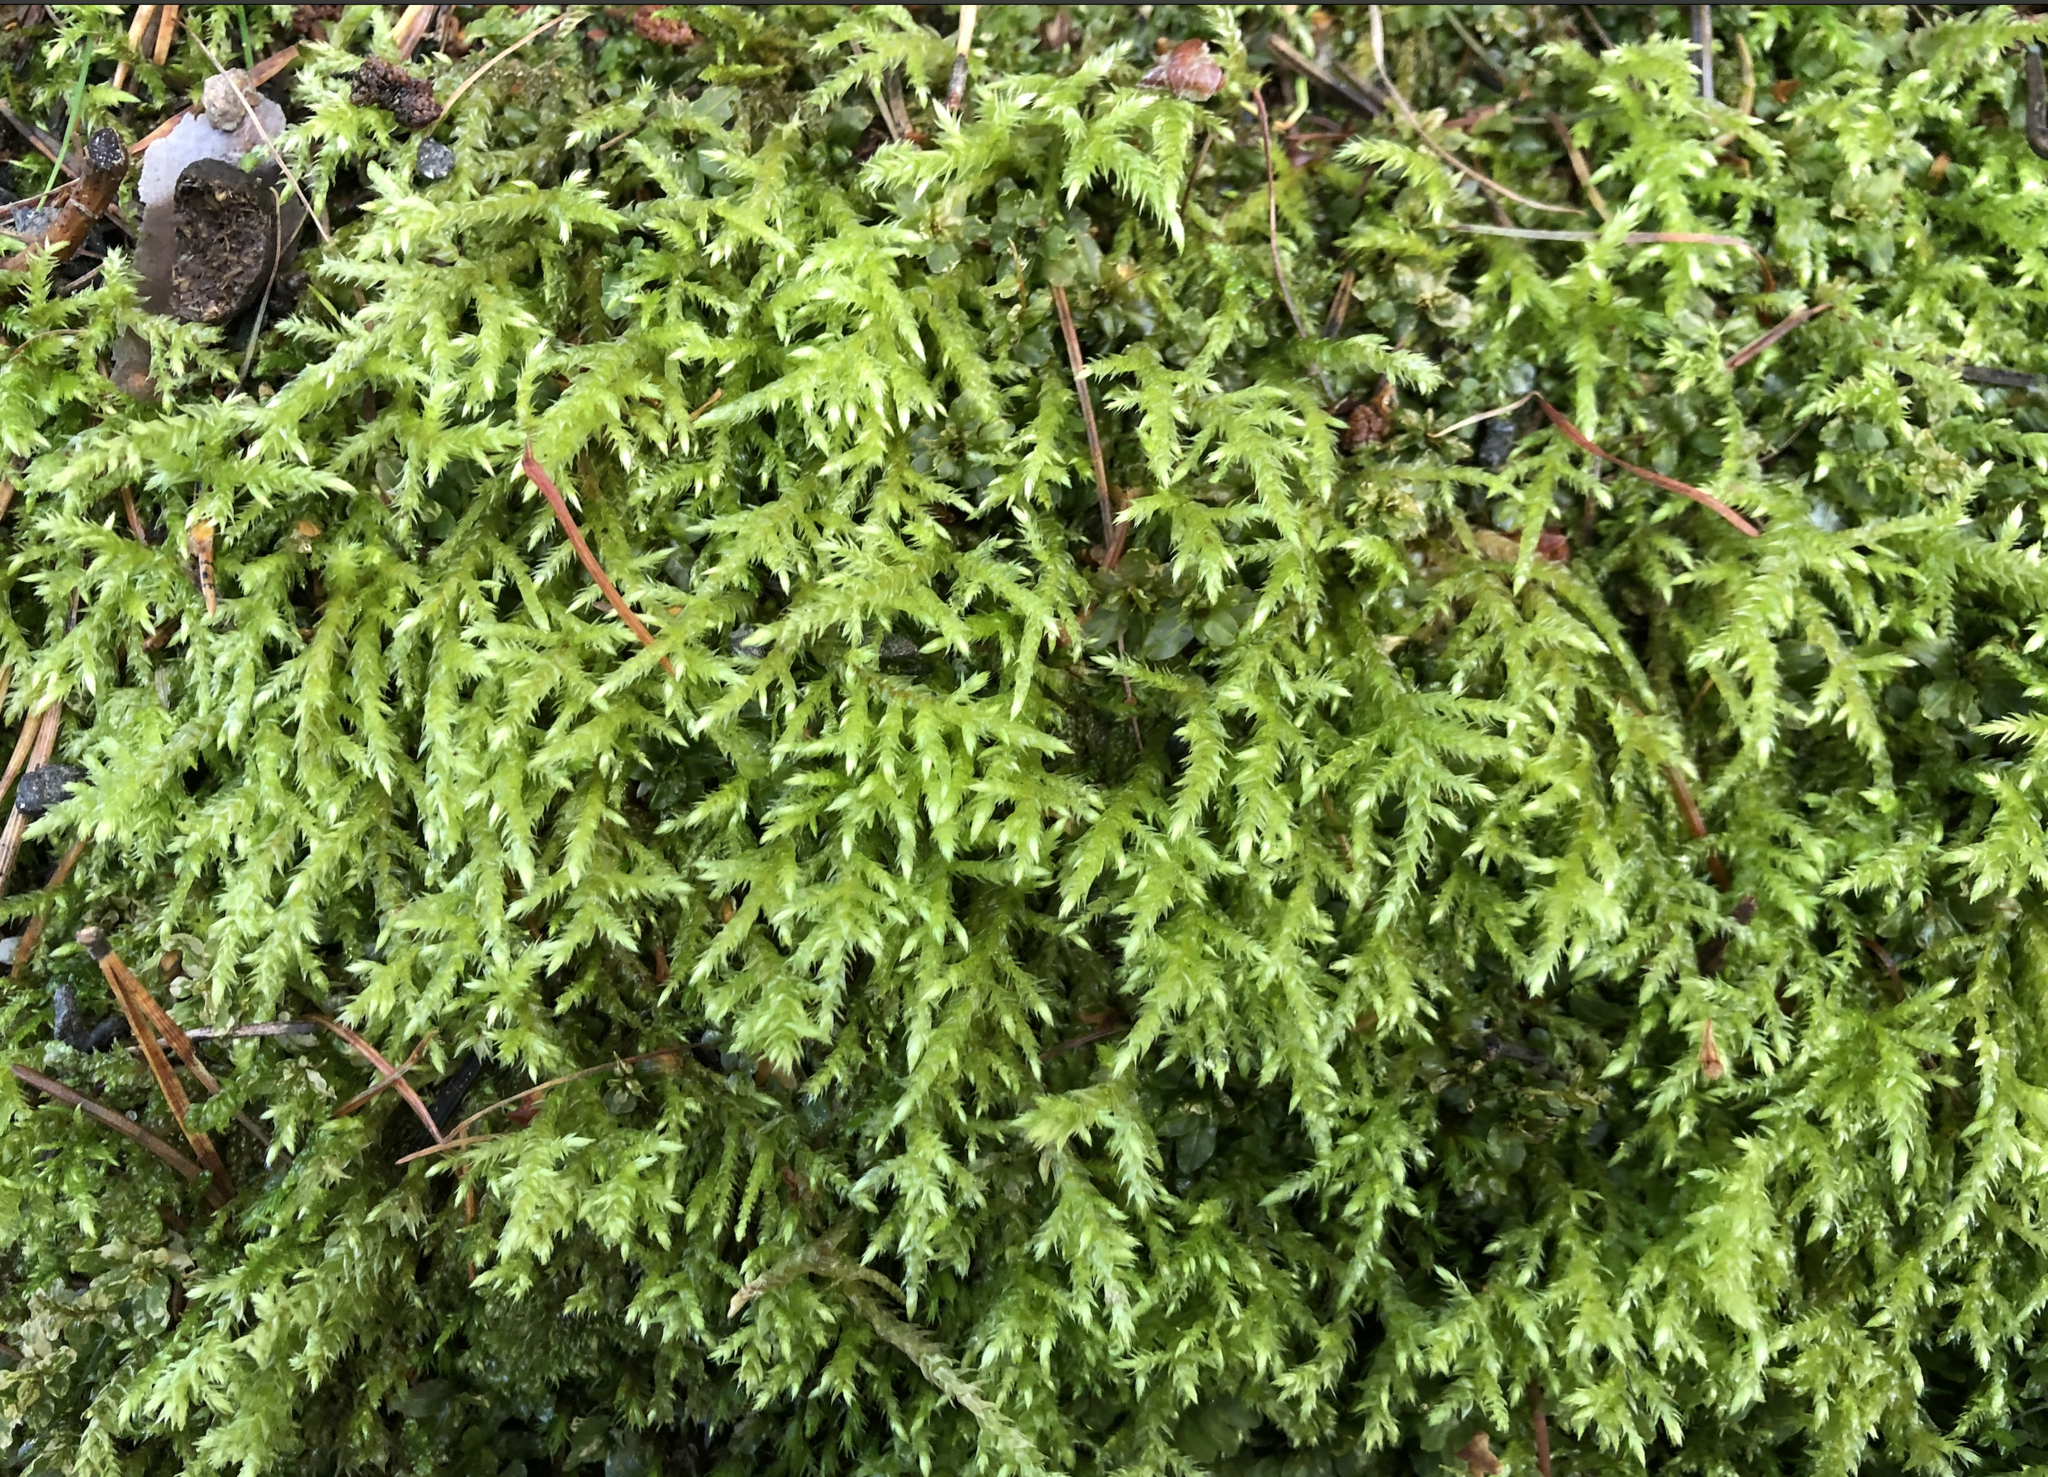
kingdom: Plantae
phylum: Bryophyta
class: Bryopsida
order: Hypnales
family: Brachytheciaceae
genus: Brachythecium
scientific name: Brachythecium rivulare
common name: River ragged moss
